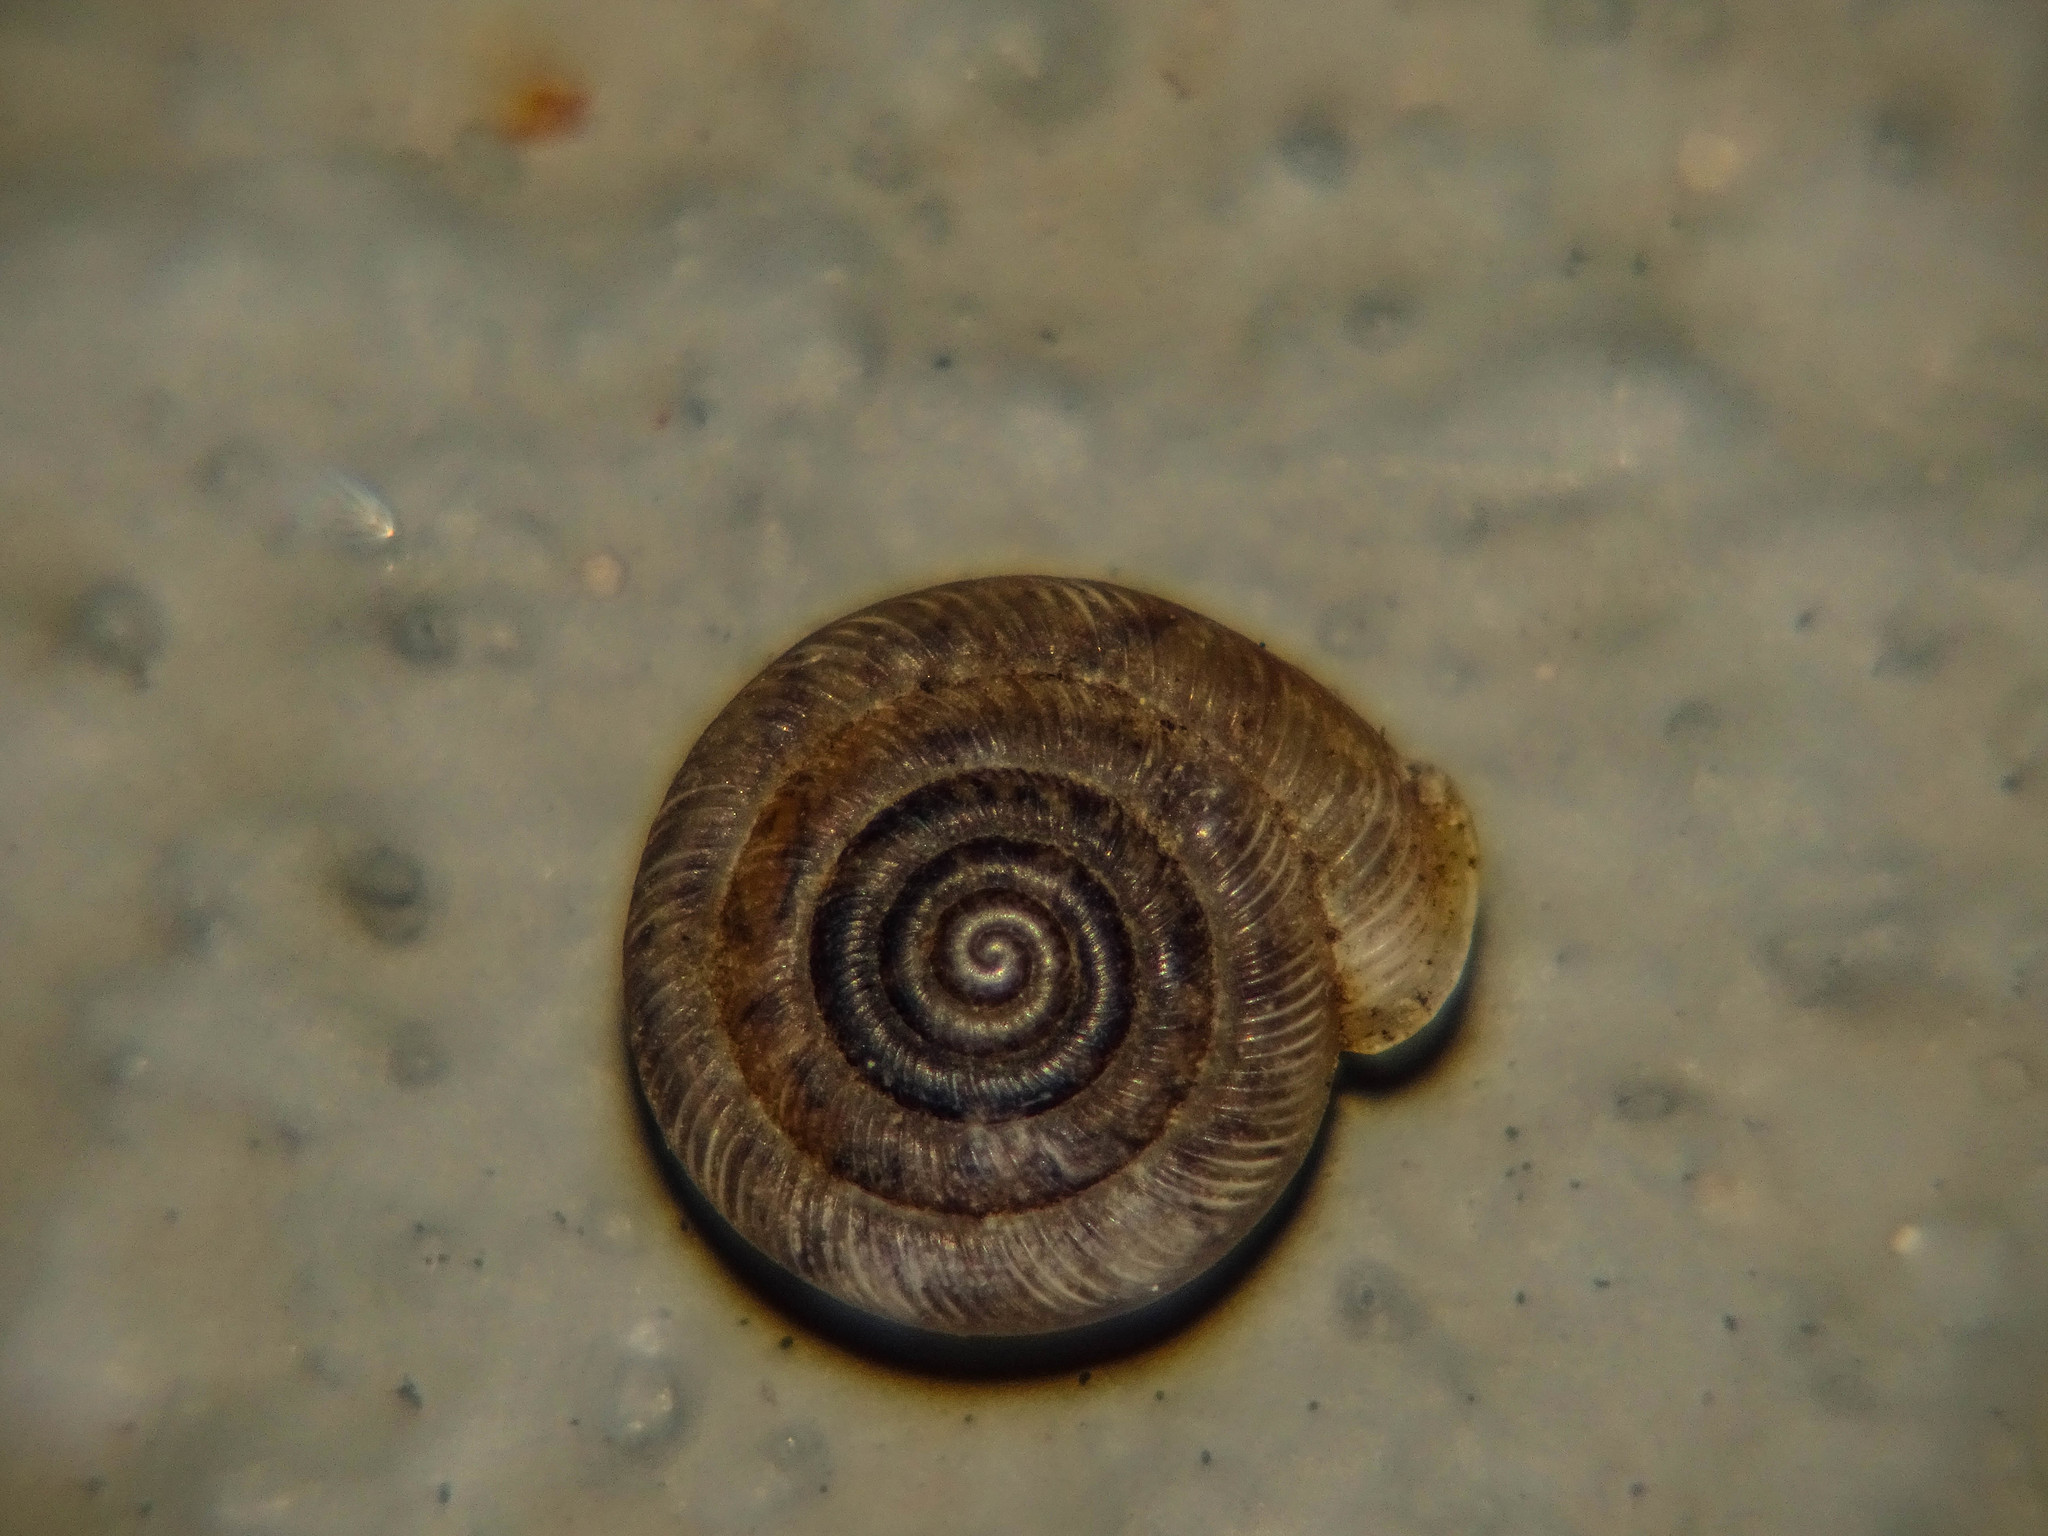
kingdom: Animalia
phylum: Mollusca
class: Gastropoda
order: Stylommatophora
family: Polygyridae
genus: Polygyra
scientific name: Polygyra cereolus
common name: Southern flatcone snail
